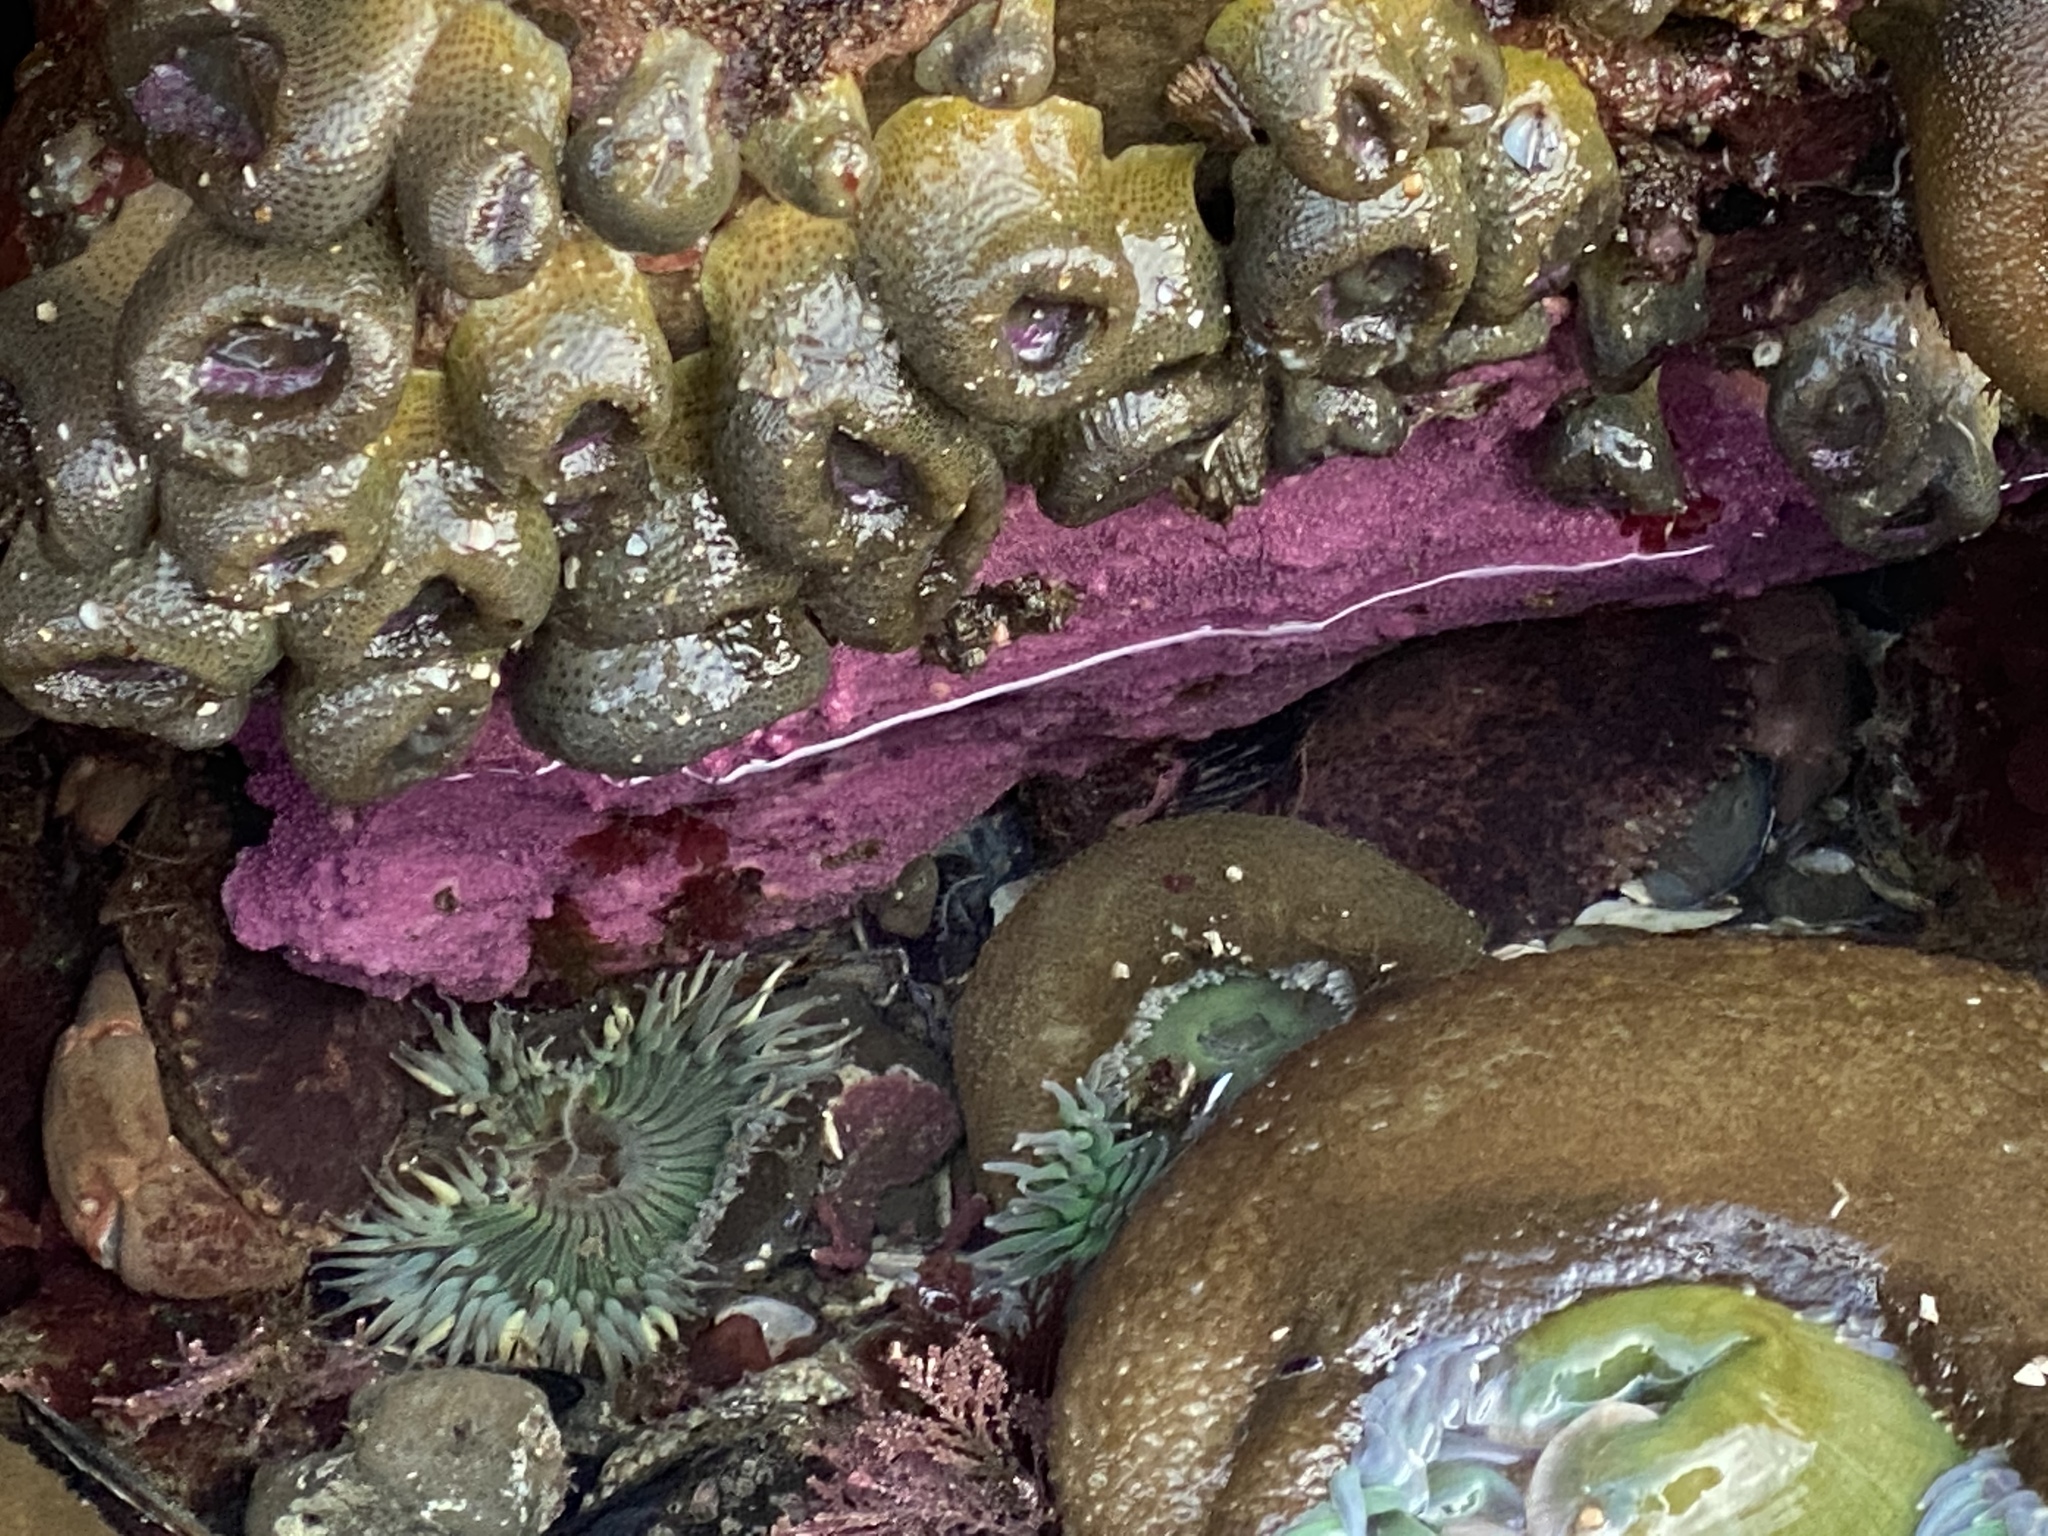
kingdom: Animalia
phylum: Cnidaria
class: Hydrozoa
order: Anthoathecata
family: Stylasteridae
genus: Stylantheca
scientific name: Stylantheca papillosa
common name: Corrugated lace hydrocoral
